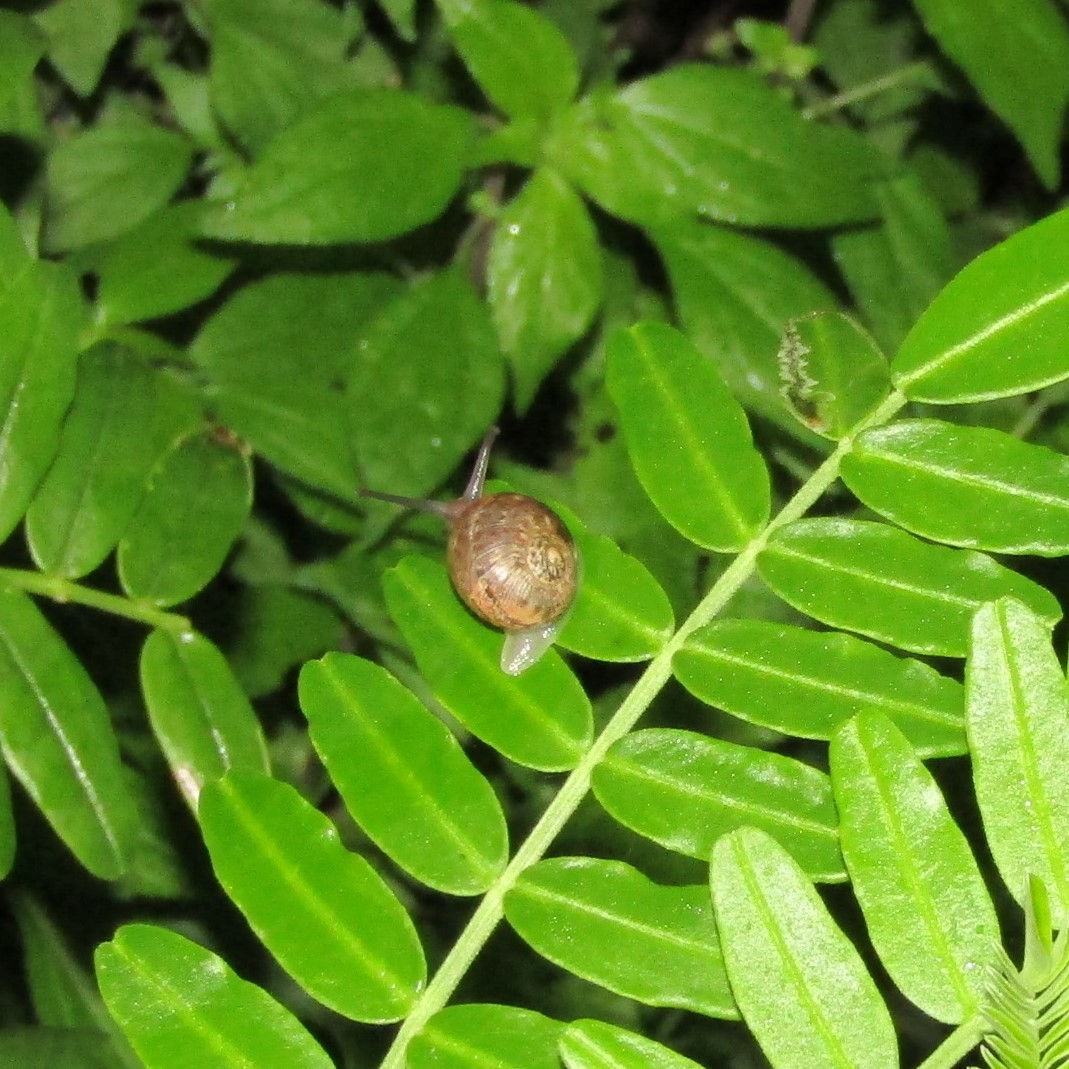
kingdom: Animalia
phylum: Mollusca
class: Gastropoda
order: Stylommatophora
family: Helicidae
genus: Cornu
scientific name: Cornu aspersum
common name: Brown garden snail
